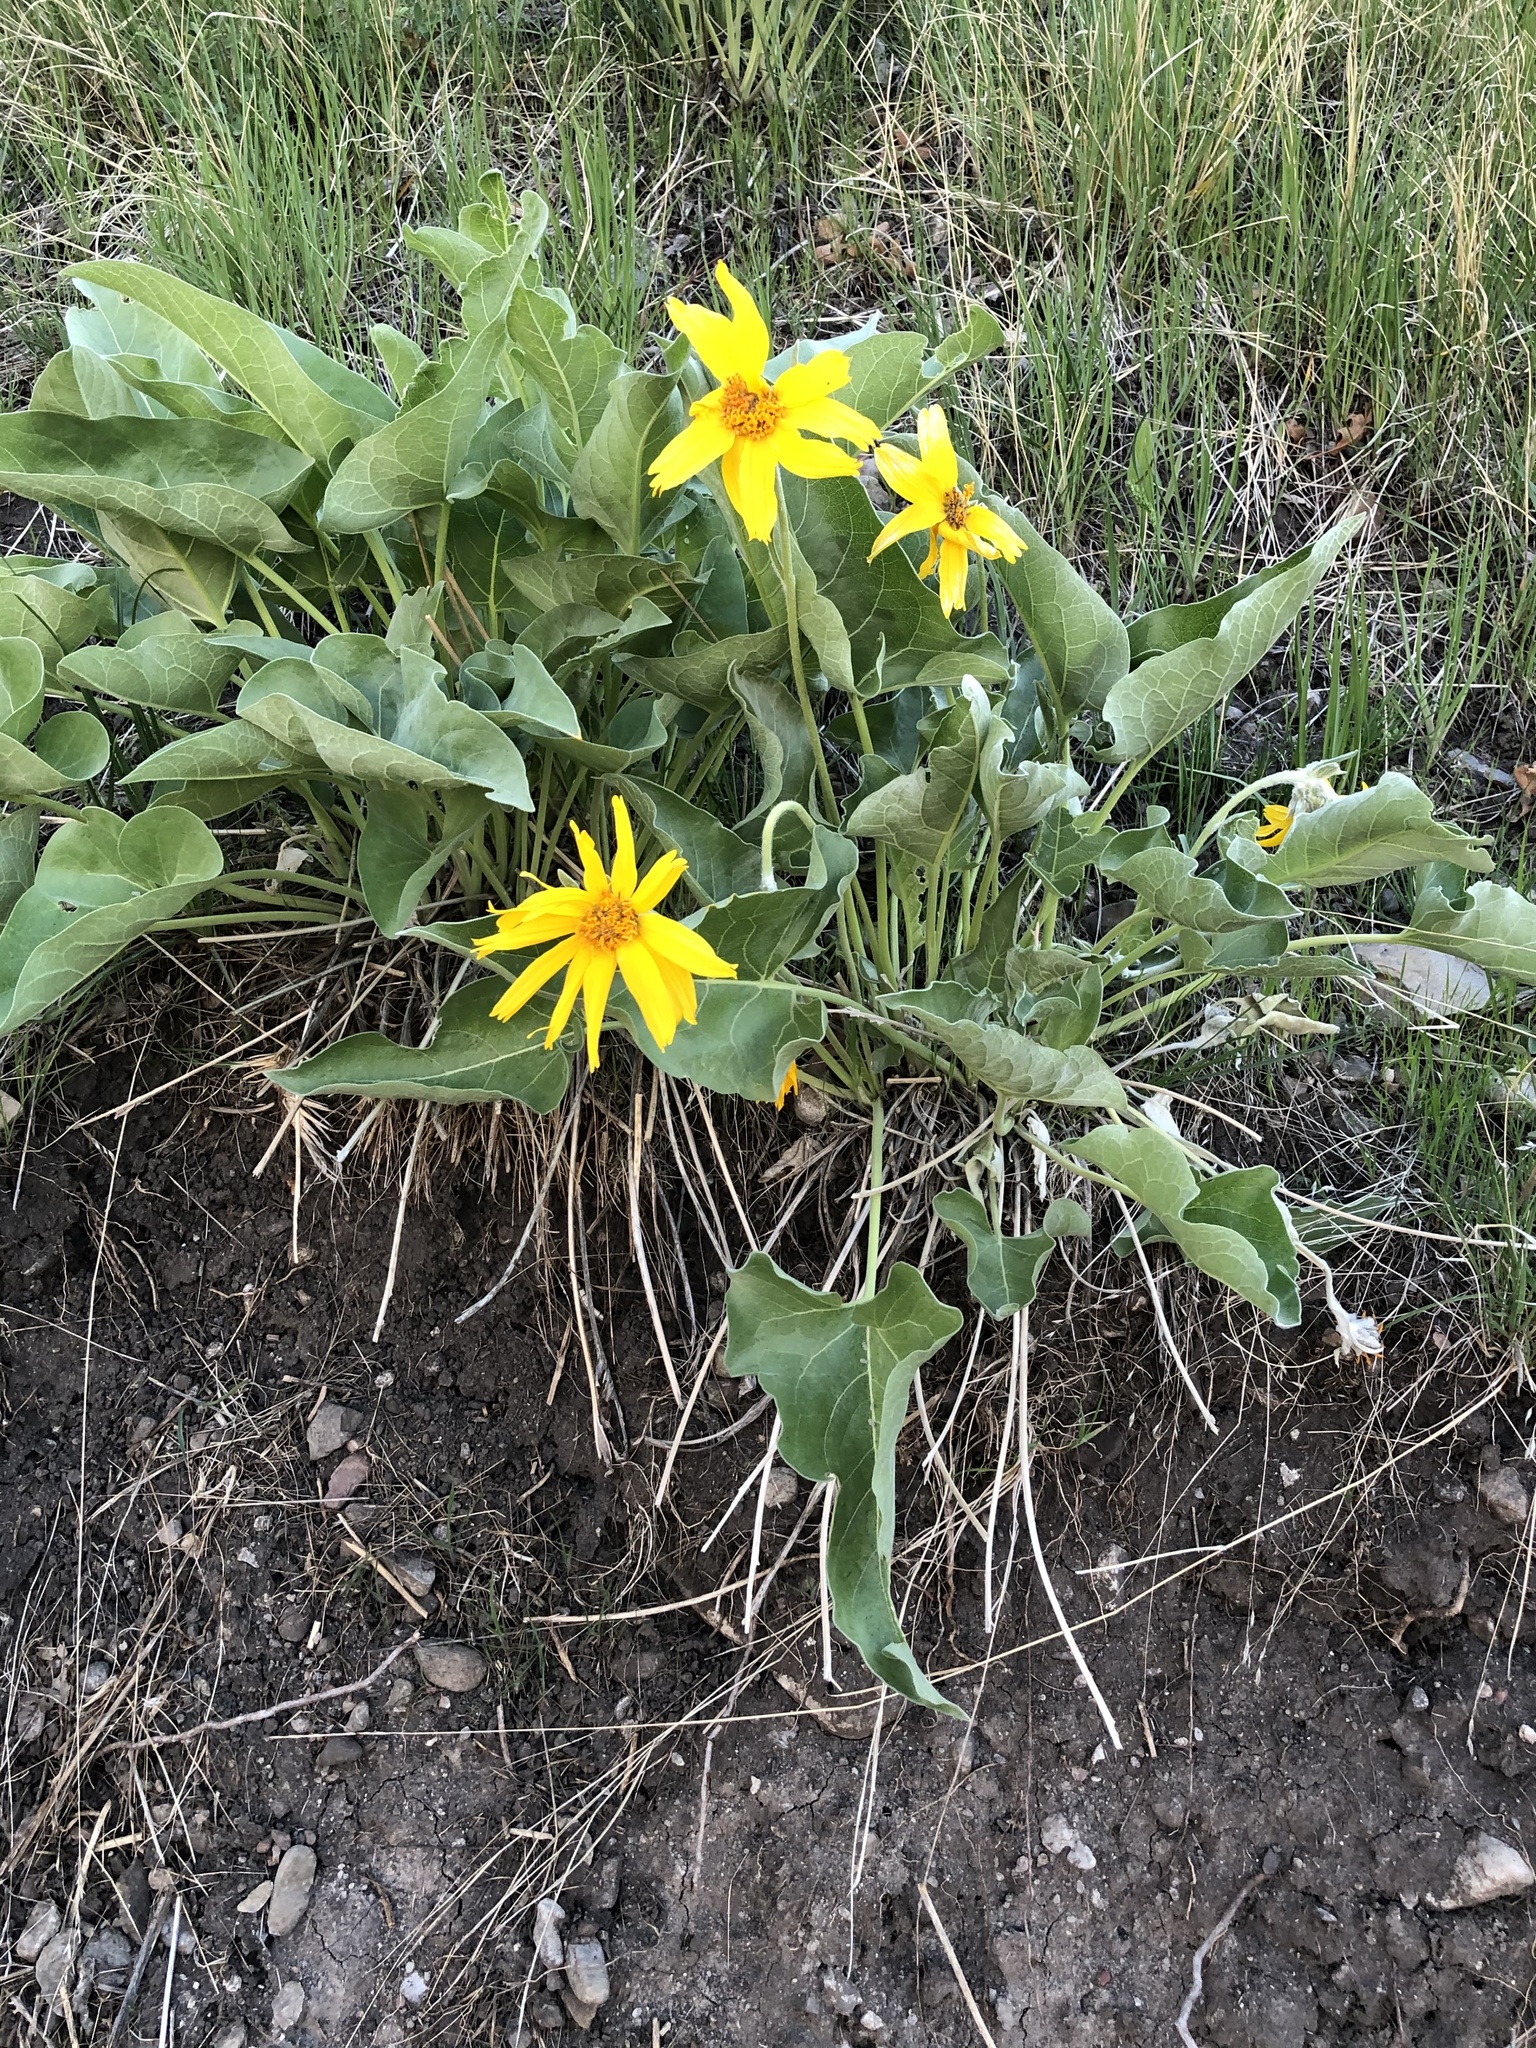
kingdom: Plantae
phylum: Tracheophyta
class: Magnoliopsida
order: Asterales
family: Asteraceae
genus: Wyethia
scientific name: Wyethia sagittata
